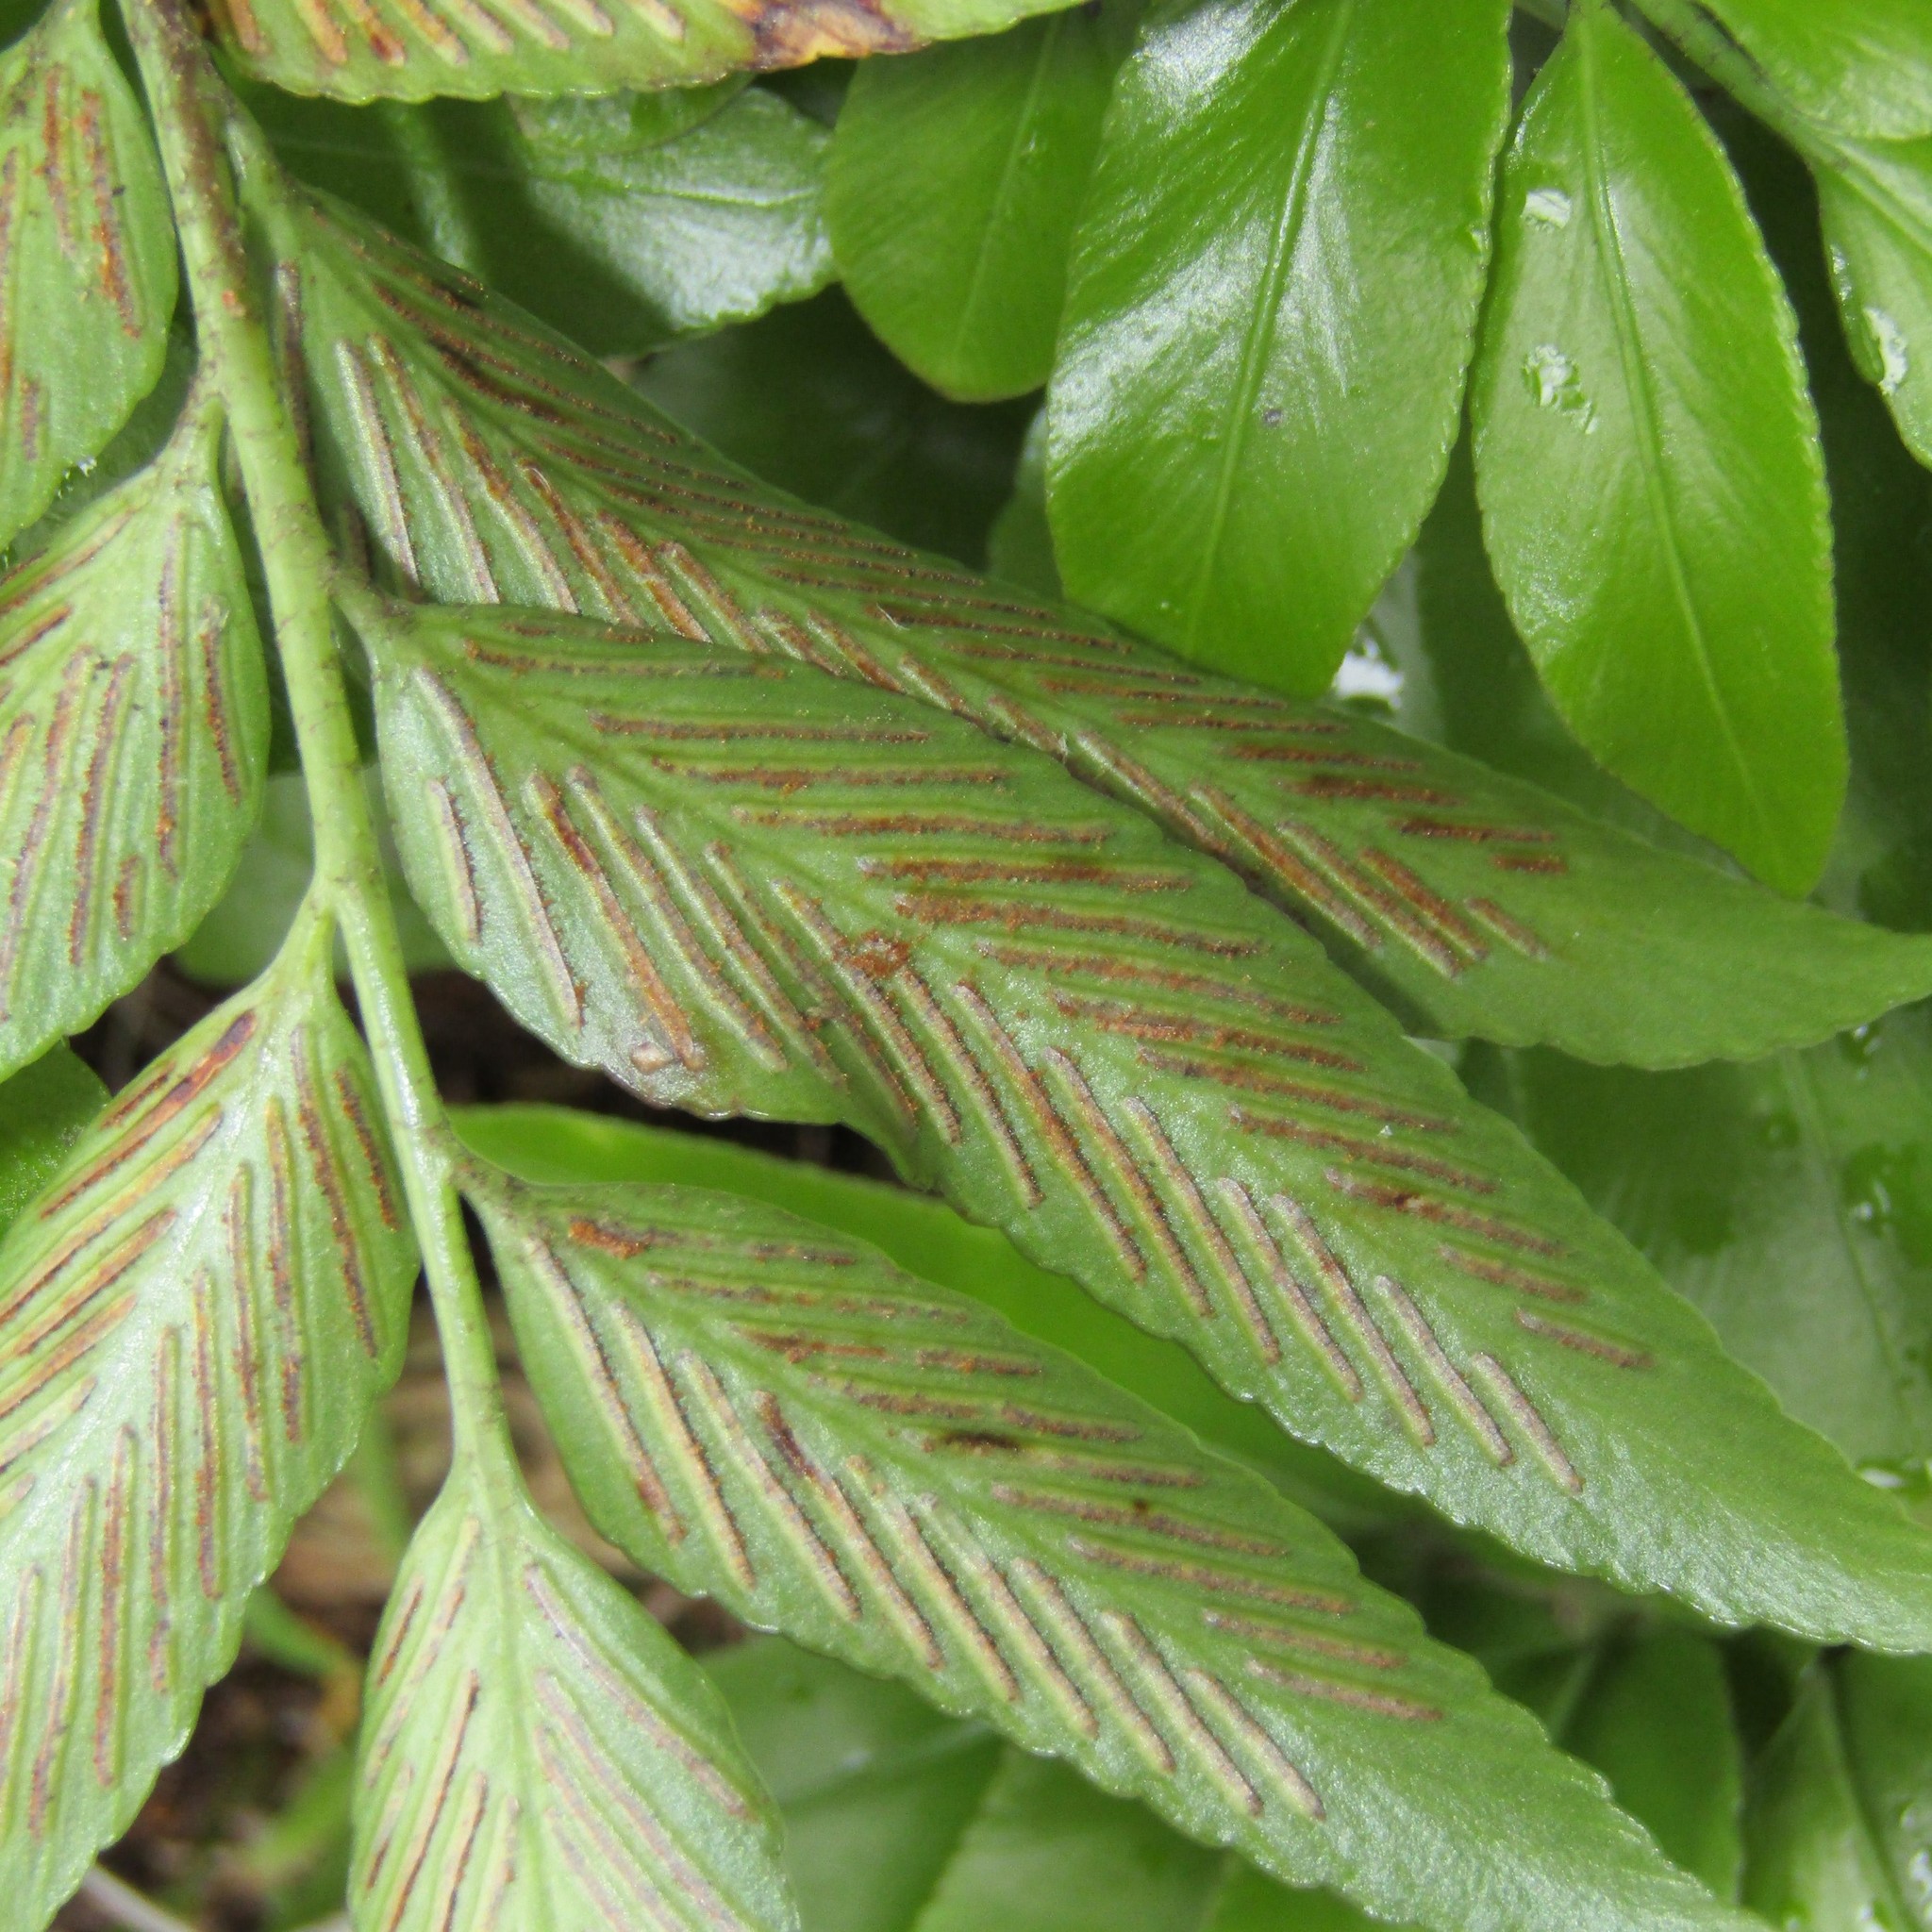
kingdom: Plantae
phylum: Tracheophyta
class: Polypodiopsida
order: Polypodiales
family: Aspleniaceae
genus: Asplenium
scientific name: Asplenium oblongifolium
